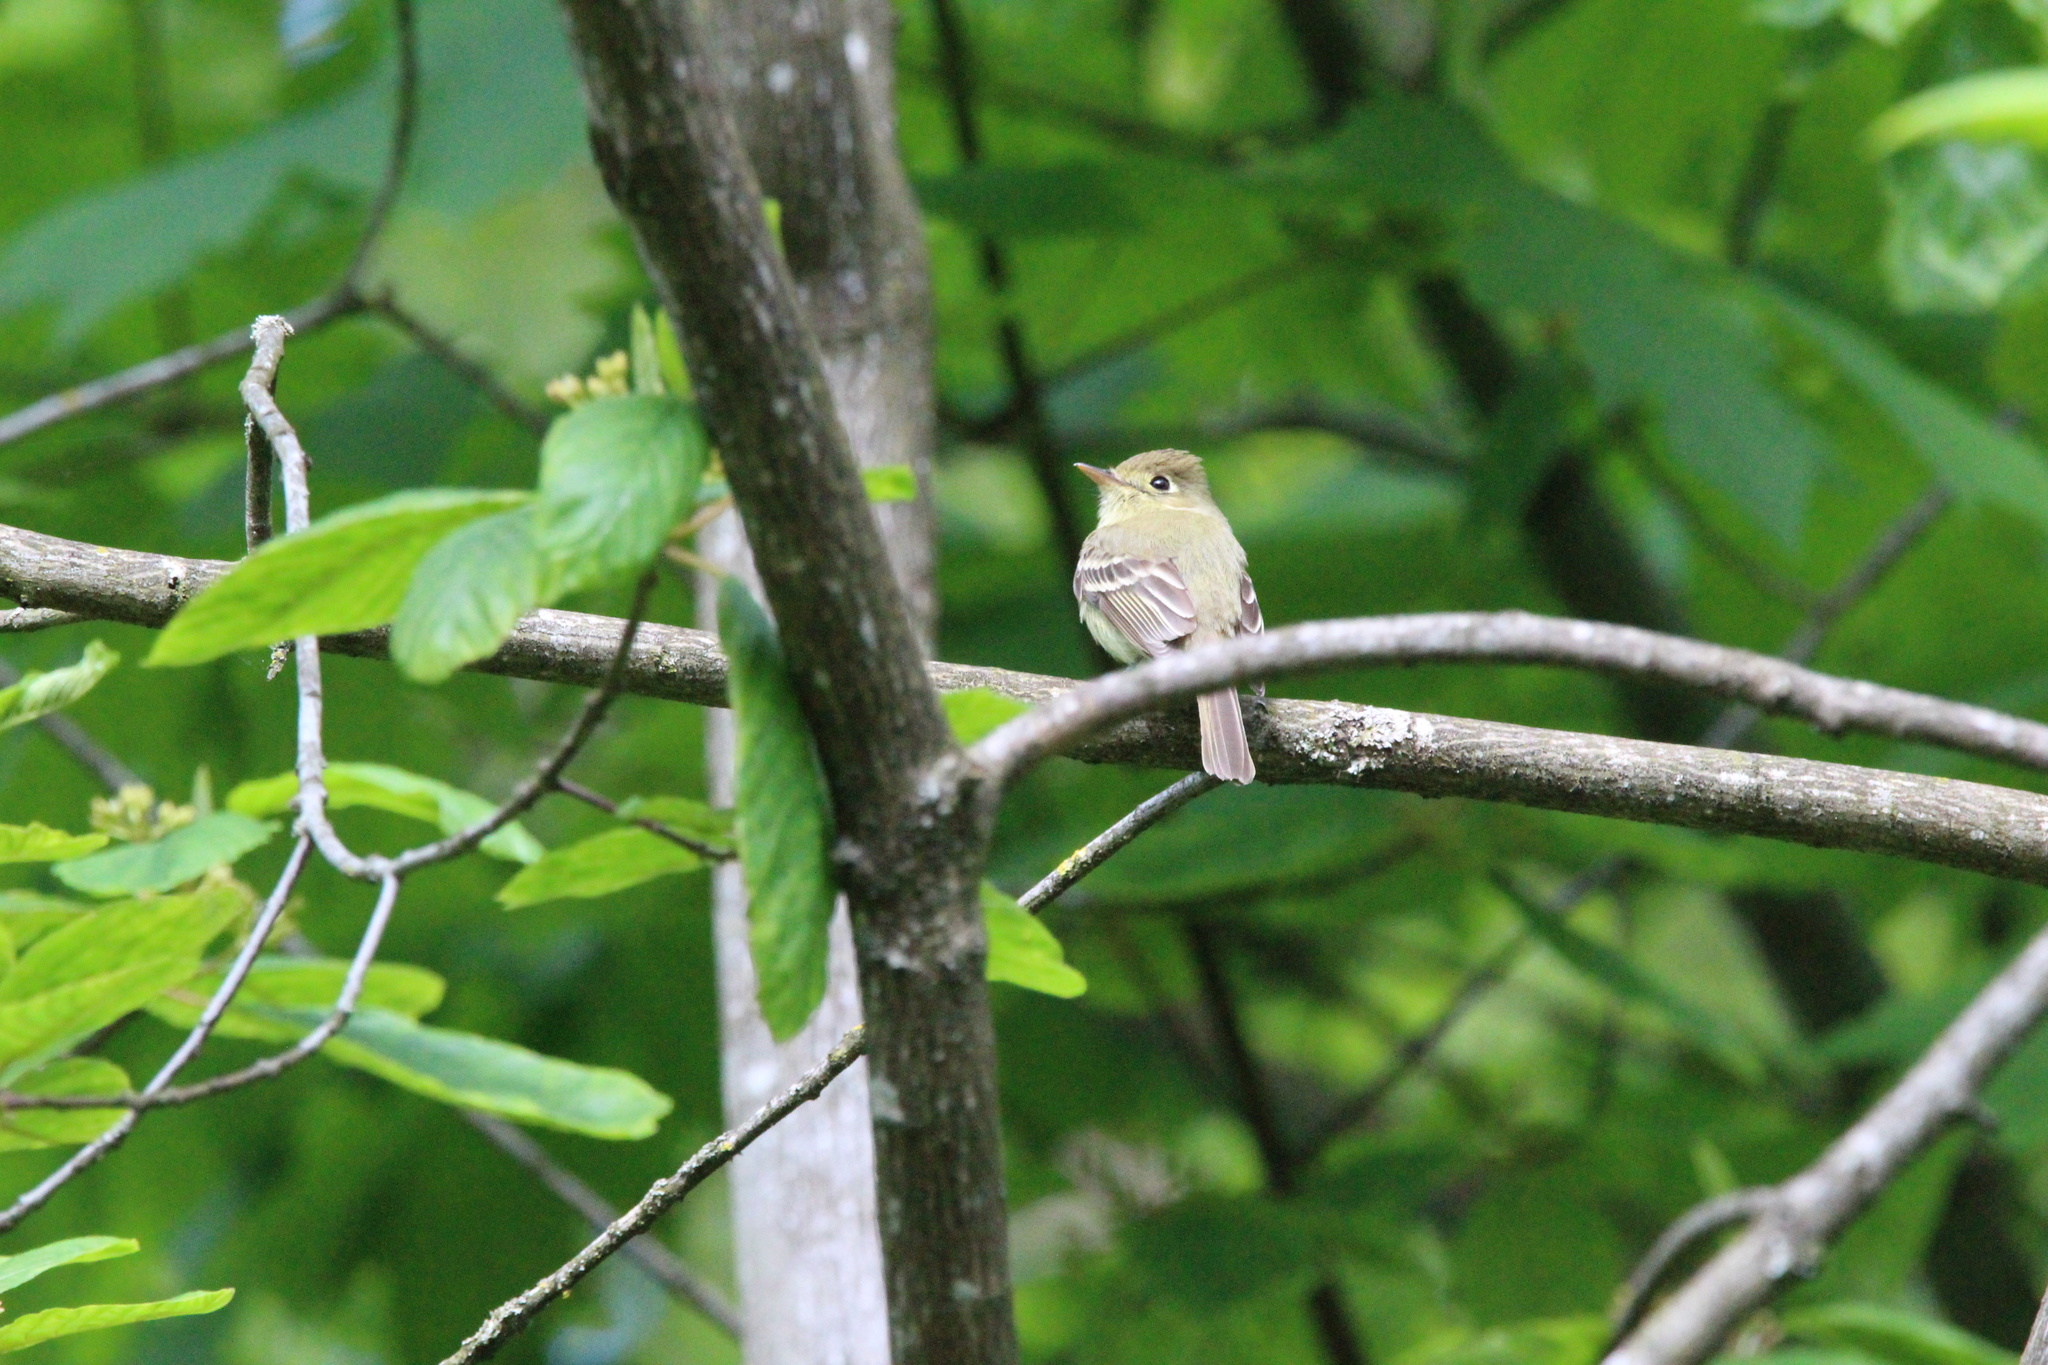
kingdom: Animalia
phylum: Chordata
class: Aves
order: Passeriformes
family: Tyrannidae
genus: Empidonax
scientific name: Empidonax difficilis
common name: Pacific-slope flycatcher
